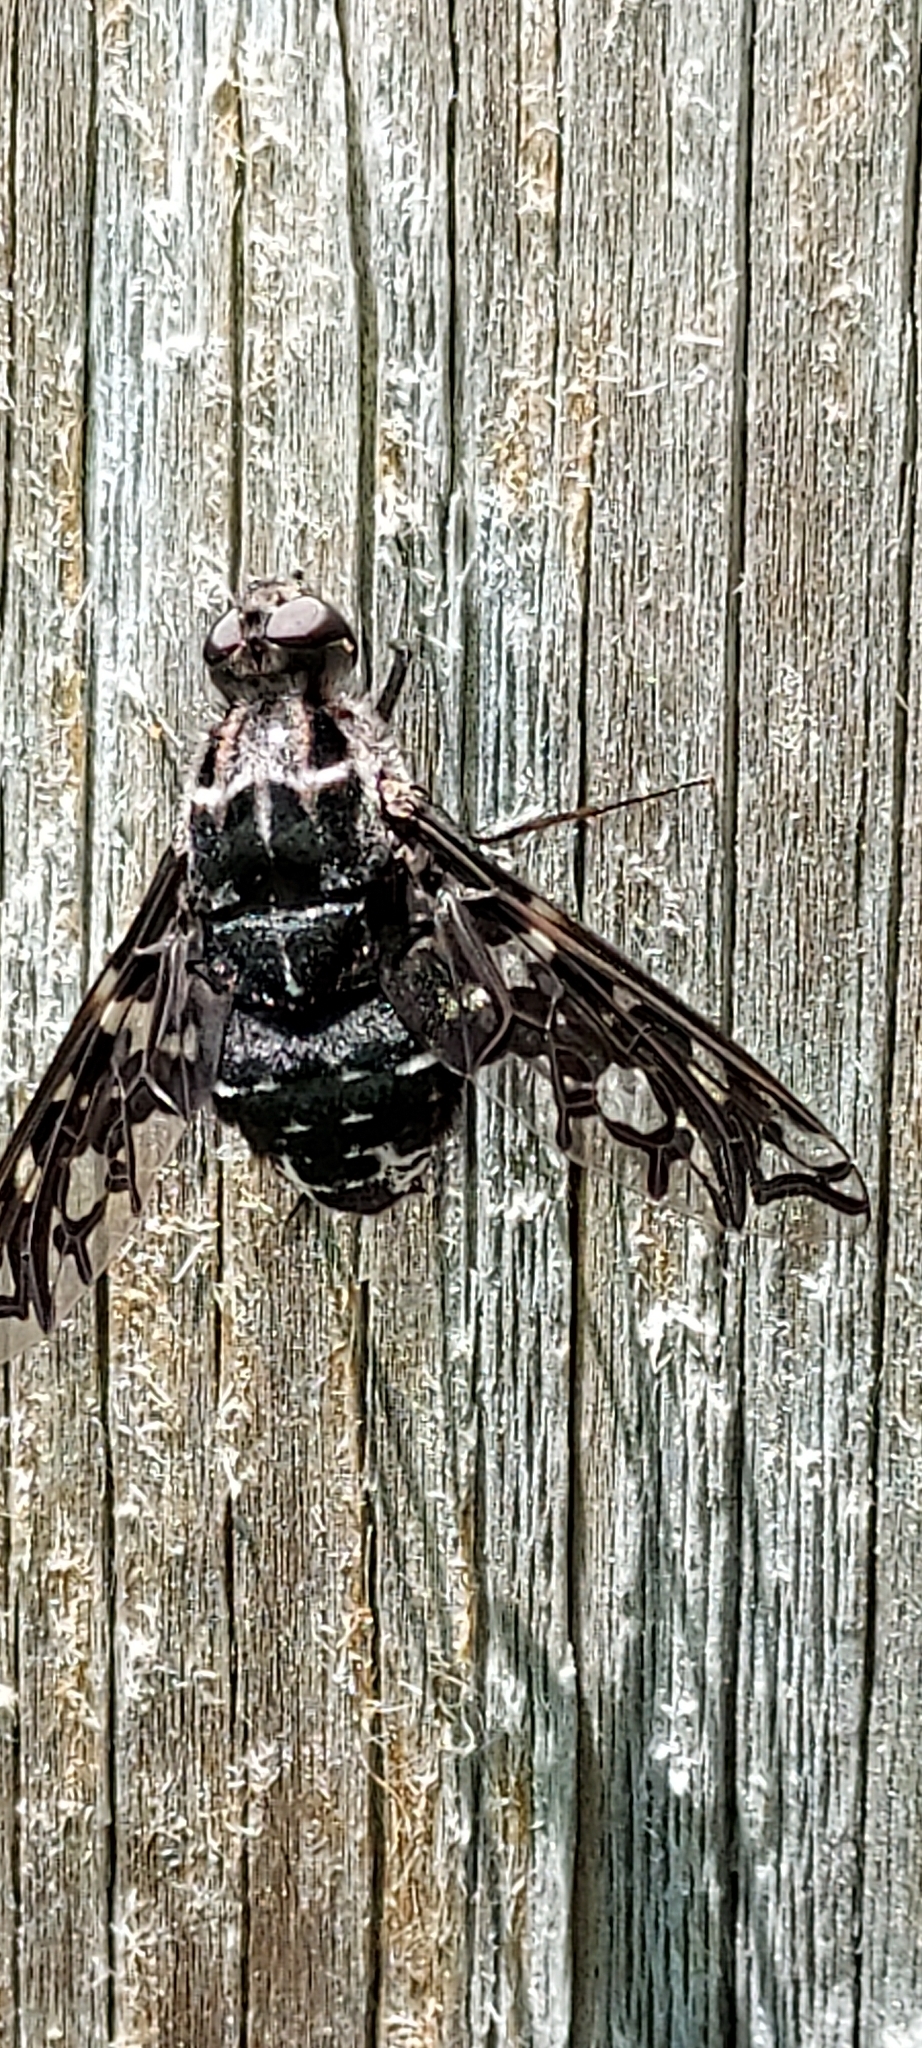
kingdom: Animalia
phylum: Arthropoda
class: Insecta
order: Diptera
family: Bombyliidae
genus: Xenox
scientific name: Xenox tigrinus
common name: Tiger bee fly
